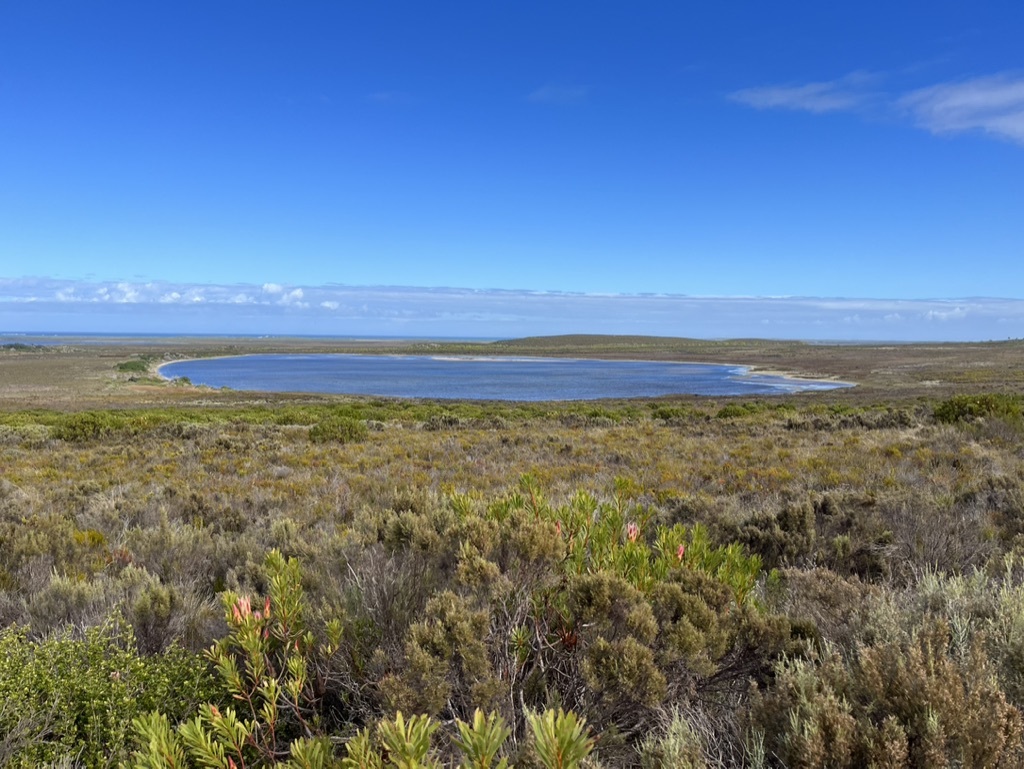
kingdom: Plantae
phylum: Tracheophyta
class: Magnoliopsida
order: Proteales
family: Proteaceae
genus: Protea
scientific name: Protea repens
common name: Sugarbush
